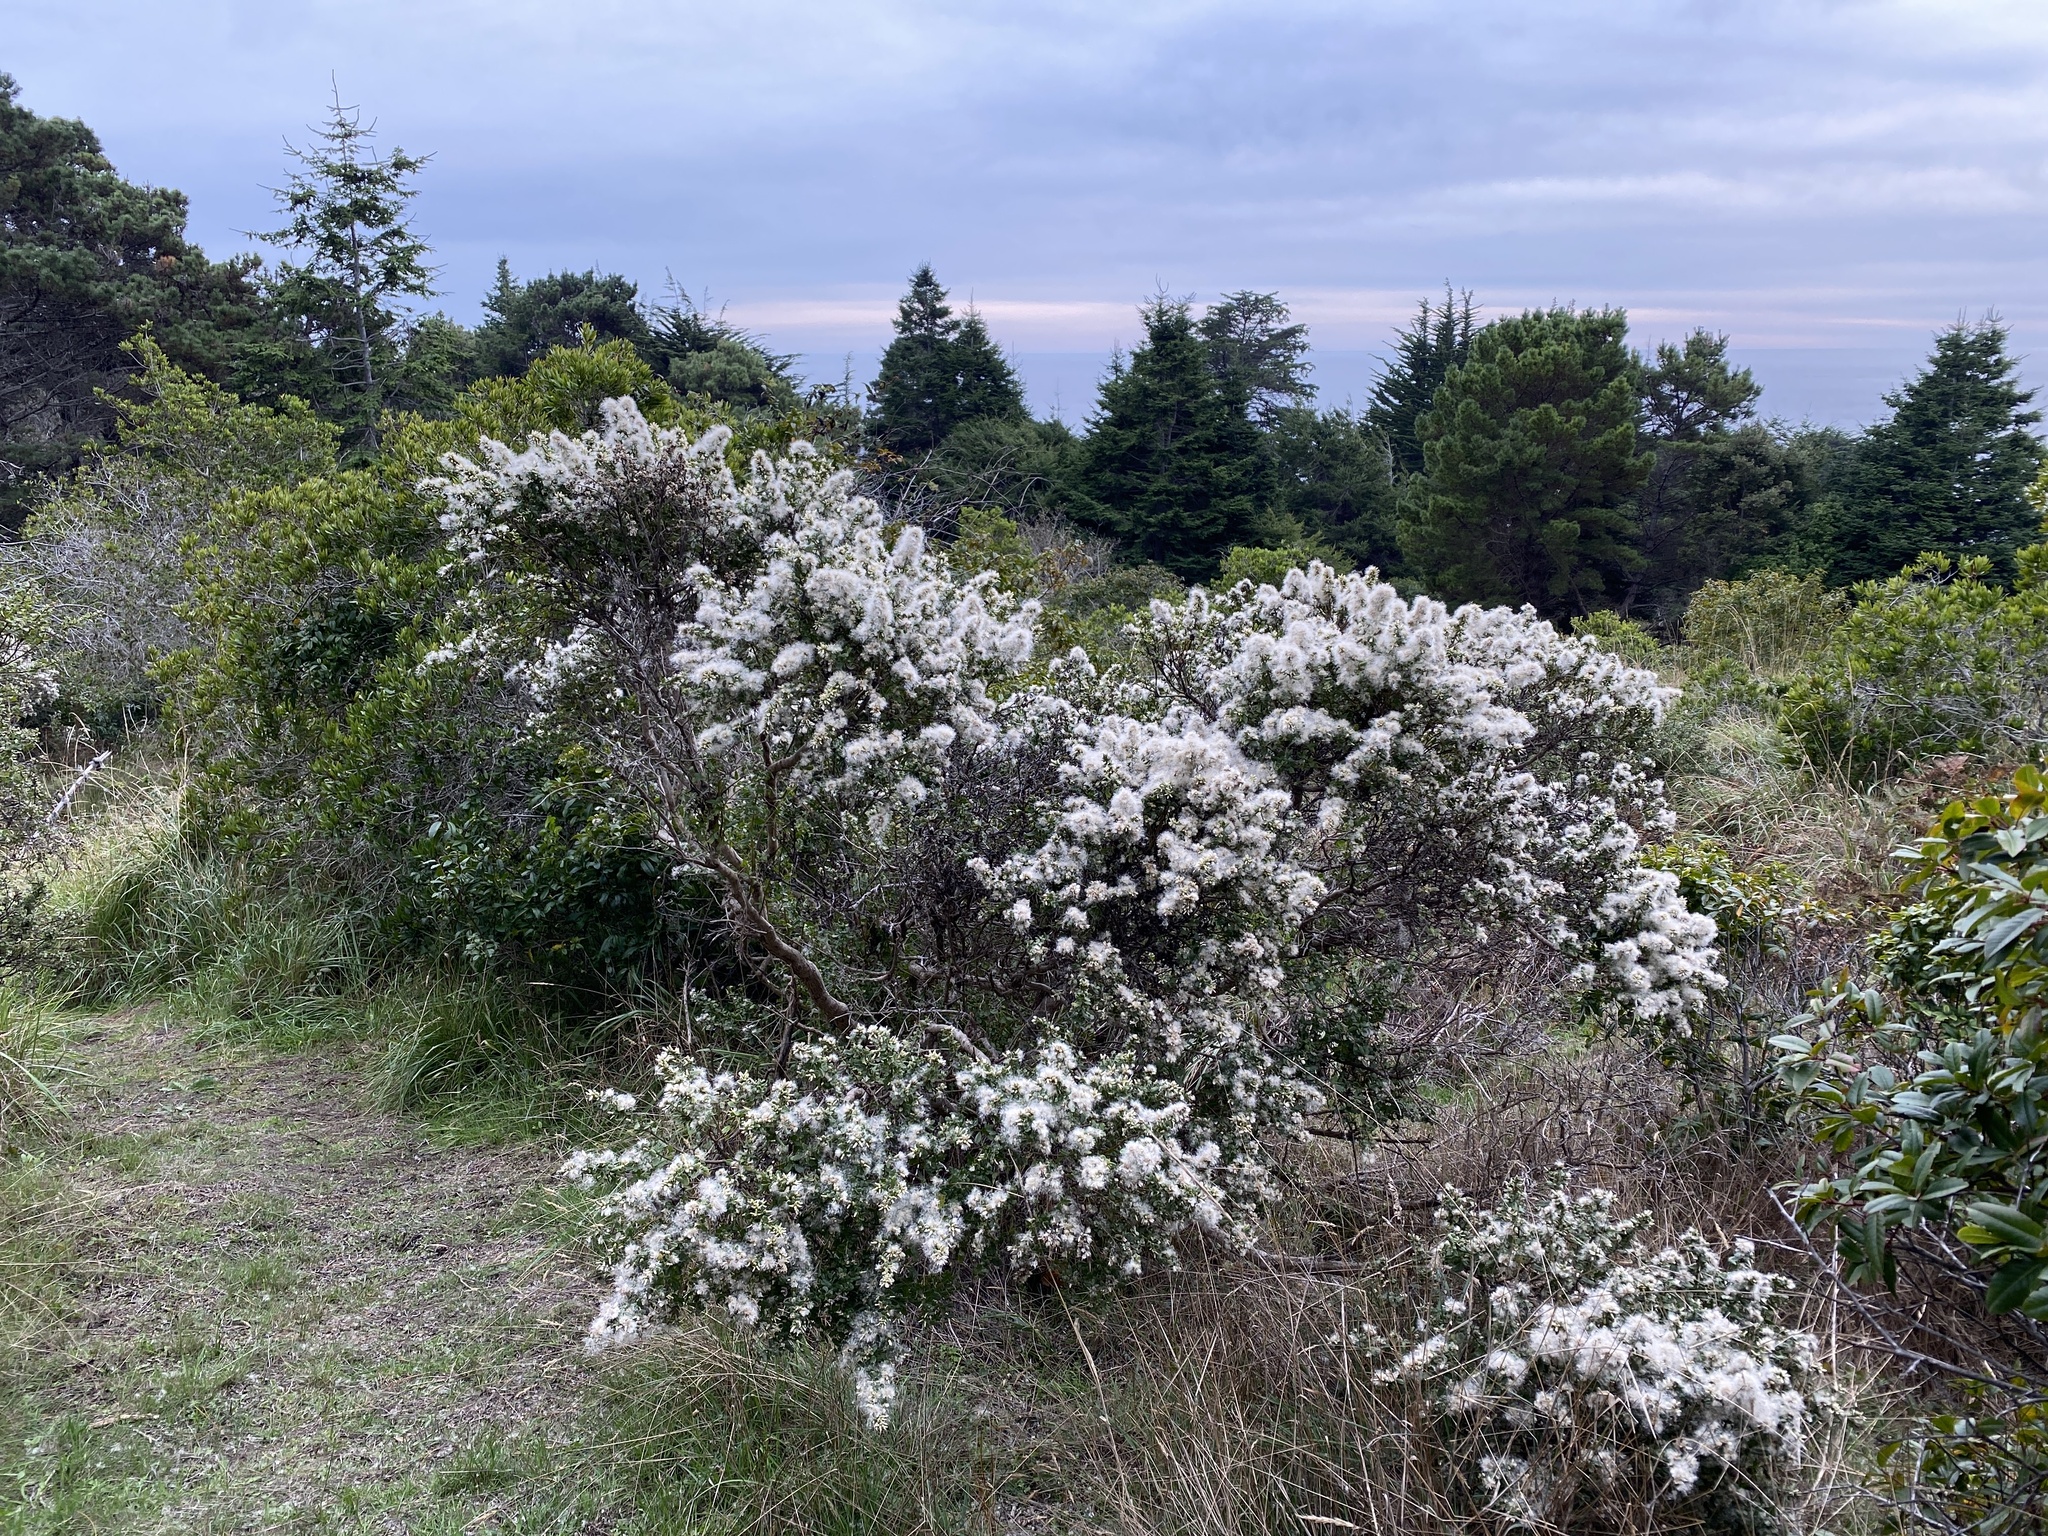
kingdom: Plantae
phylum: Tracheophyta
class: Magnoliopsida
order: Asterales
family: Asteraceae
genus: Baccharis
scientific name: Baccharis pilularis
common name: Coyotebrush
